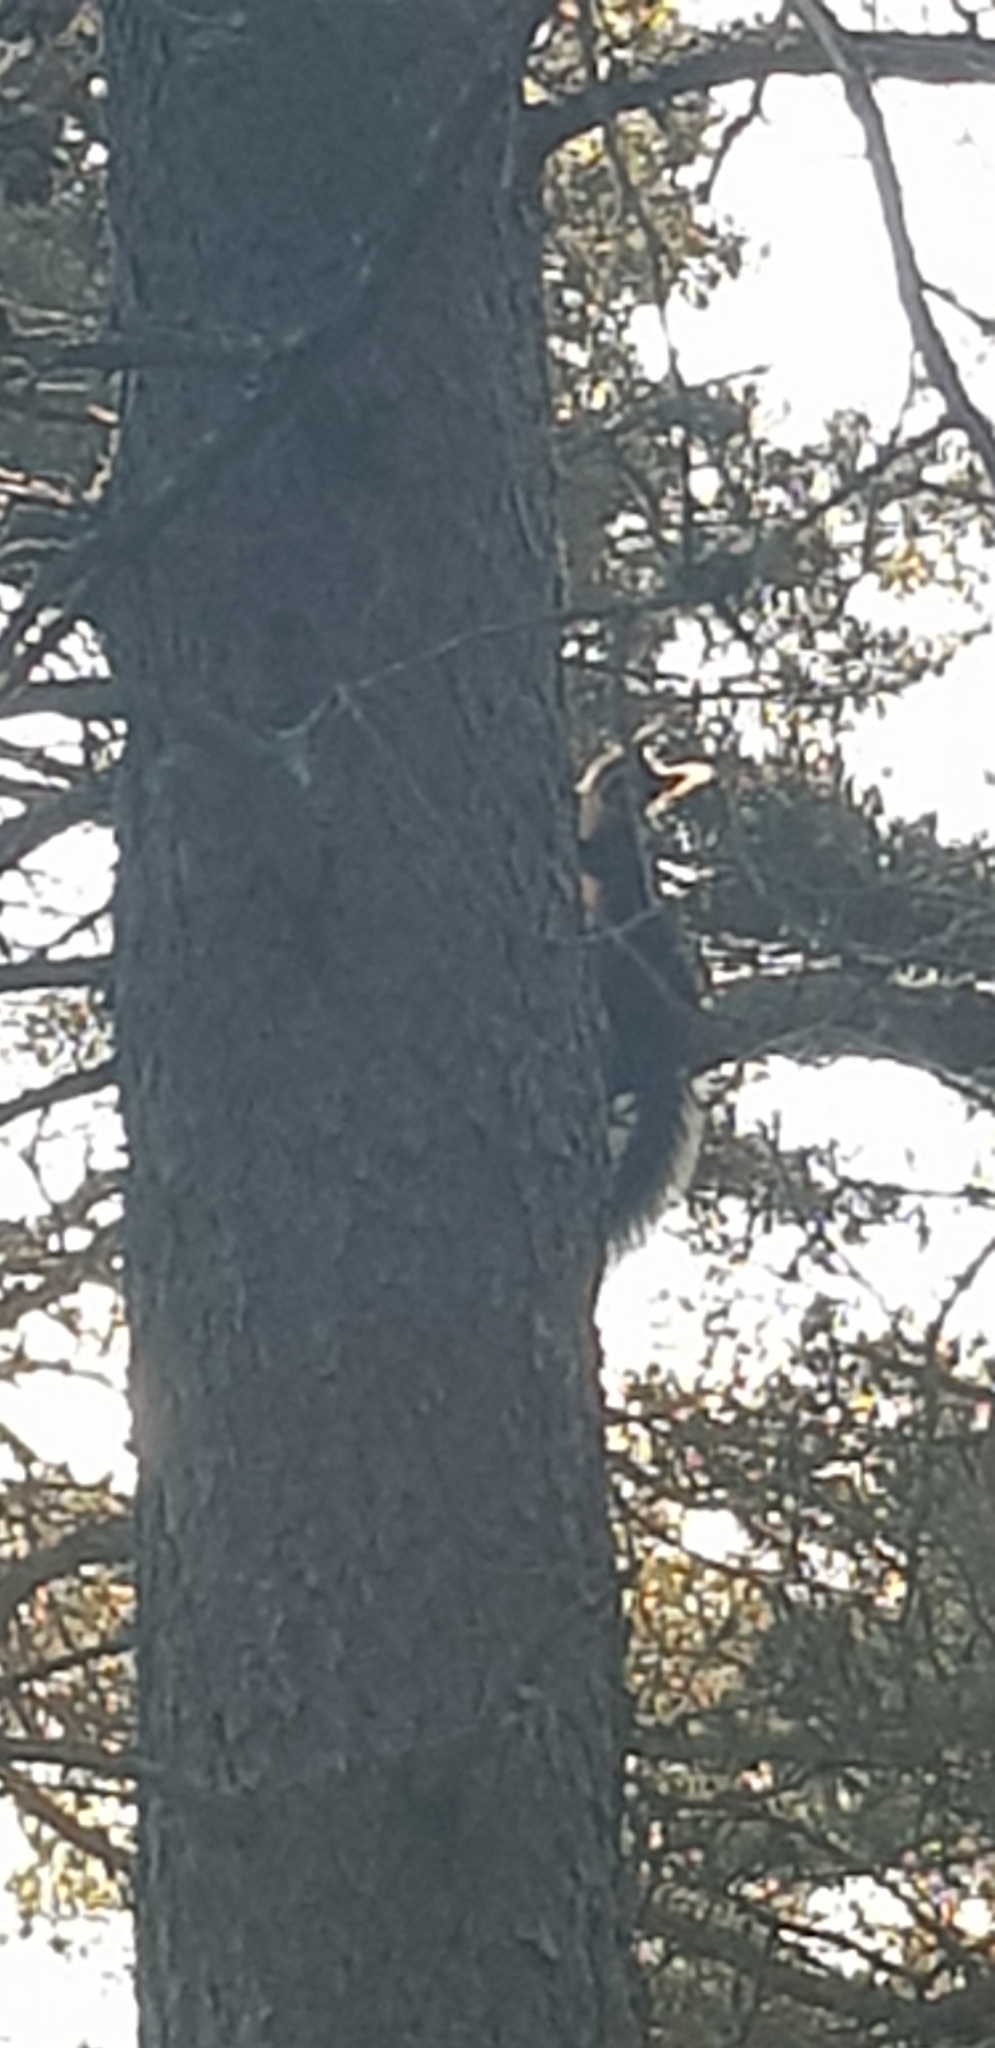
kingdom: Animalia
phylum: Chordata
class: Mammalia
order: Rodentia
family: Sciuridae
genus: Sciurus
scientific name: Sciurus vulgaris
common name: Eurasian red squirrel
